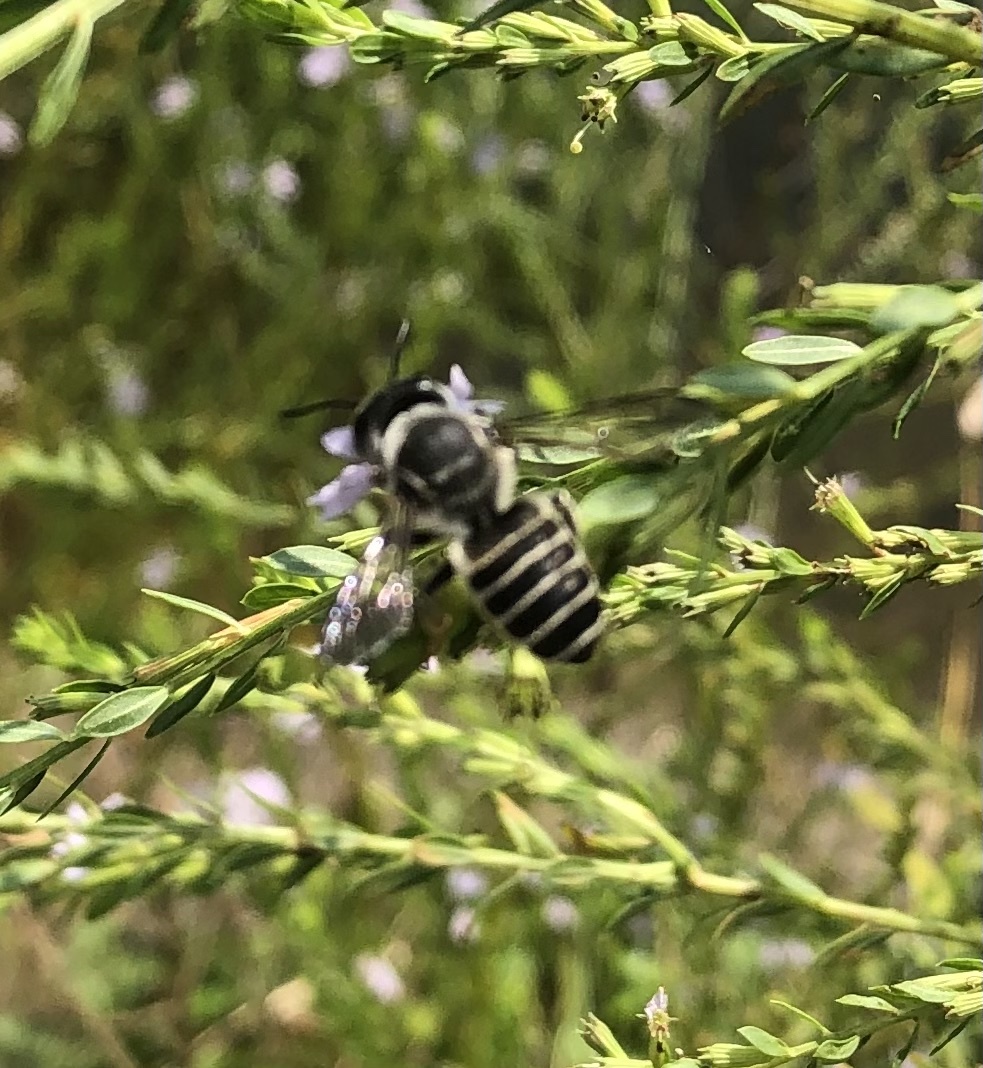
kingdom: Animalia
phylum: Arthropoda
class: Insecta
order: Hymenoptera
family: Megachilidae
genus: Megachile
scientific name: Megachile policaris
